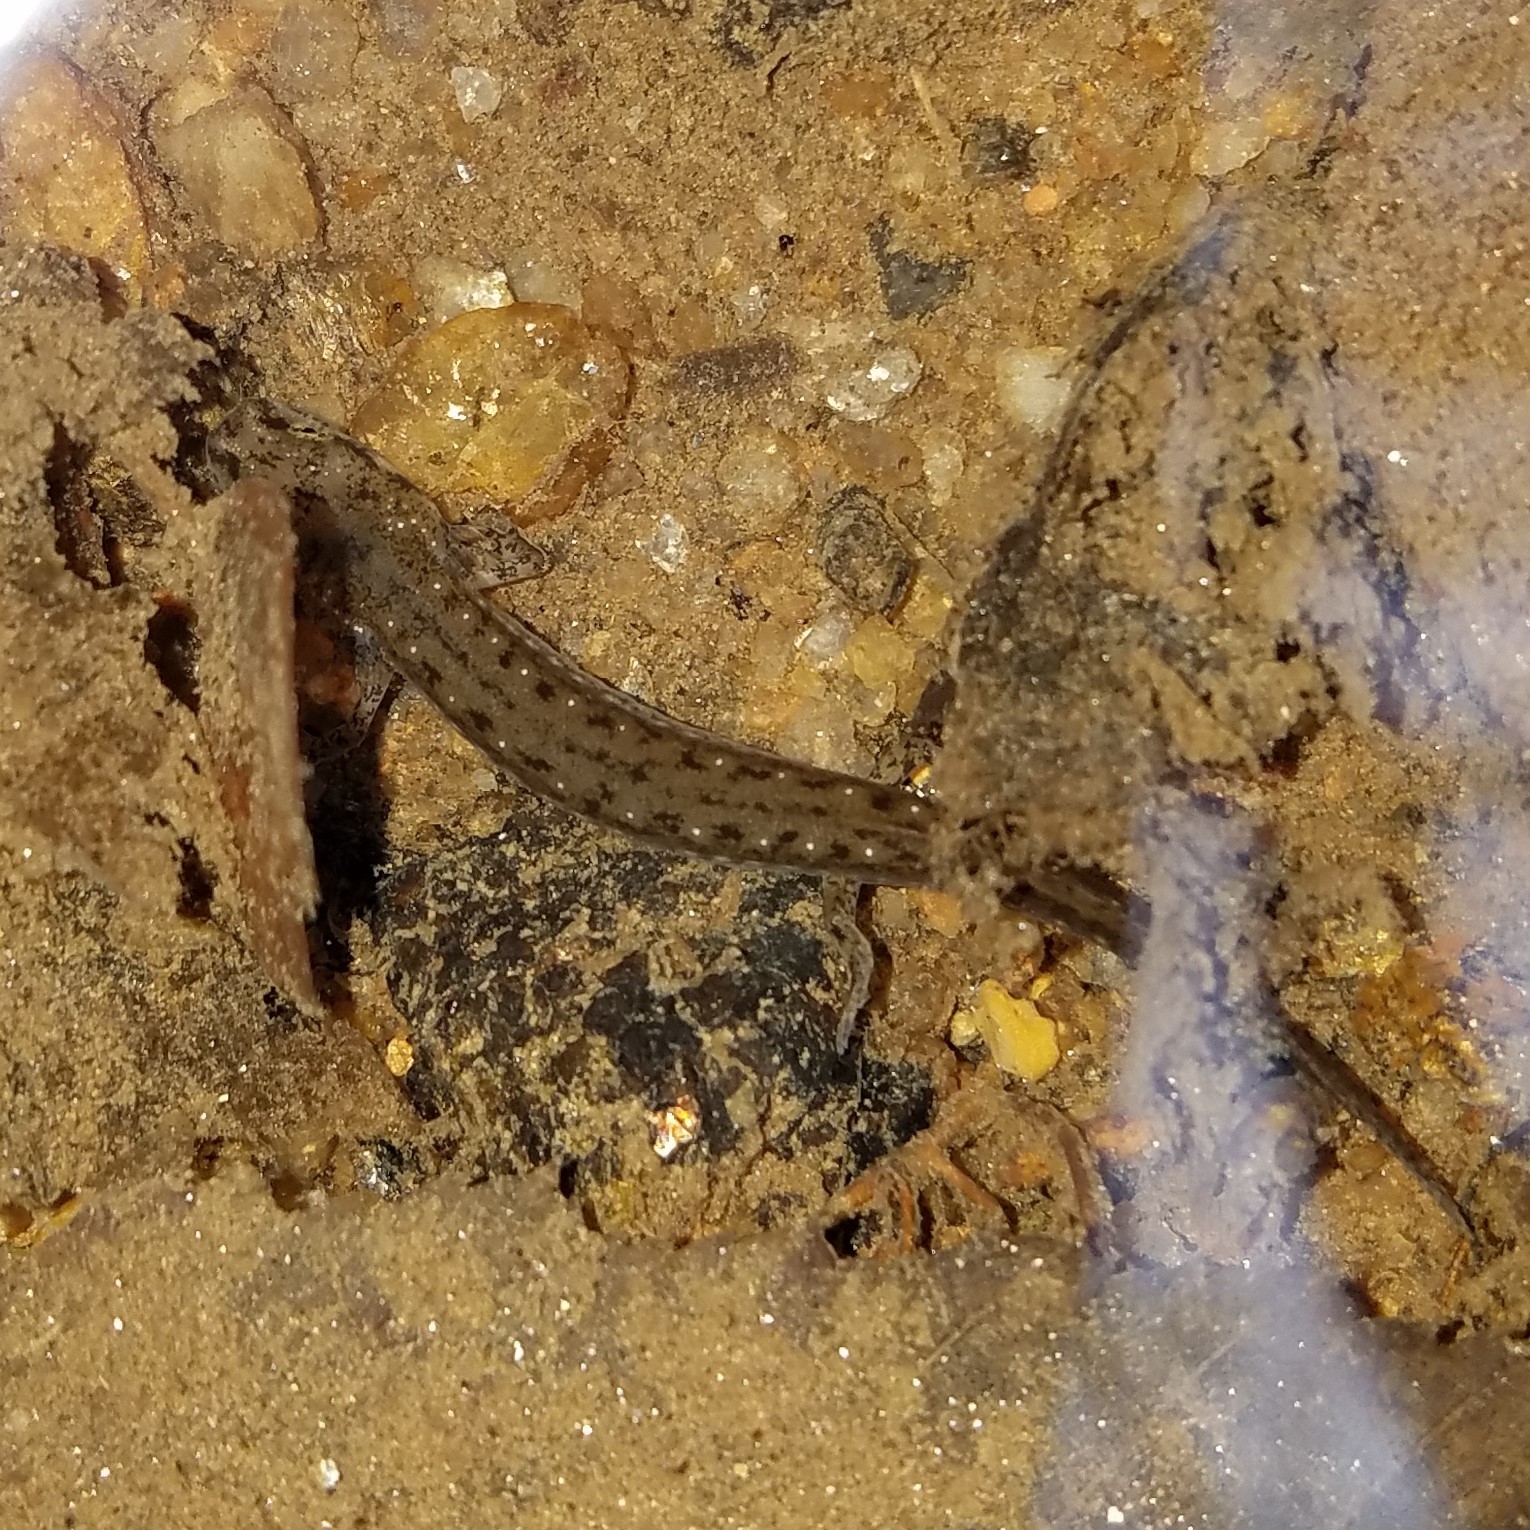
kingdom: Animalia
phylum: Chordata
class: Amphibia
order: Caudata
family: Plethodontidae
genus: Eurycea
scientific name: Eurycea cirrigera
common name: Southern two-lined salamander
